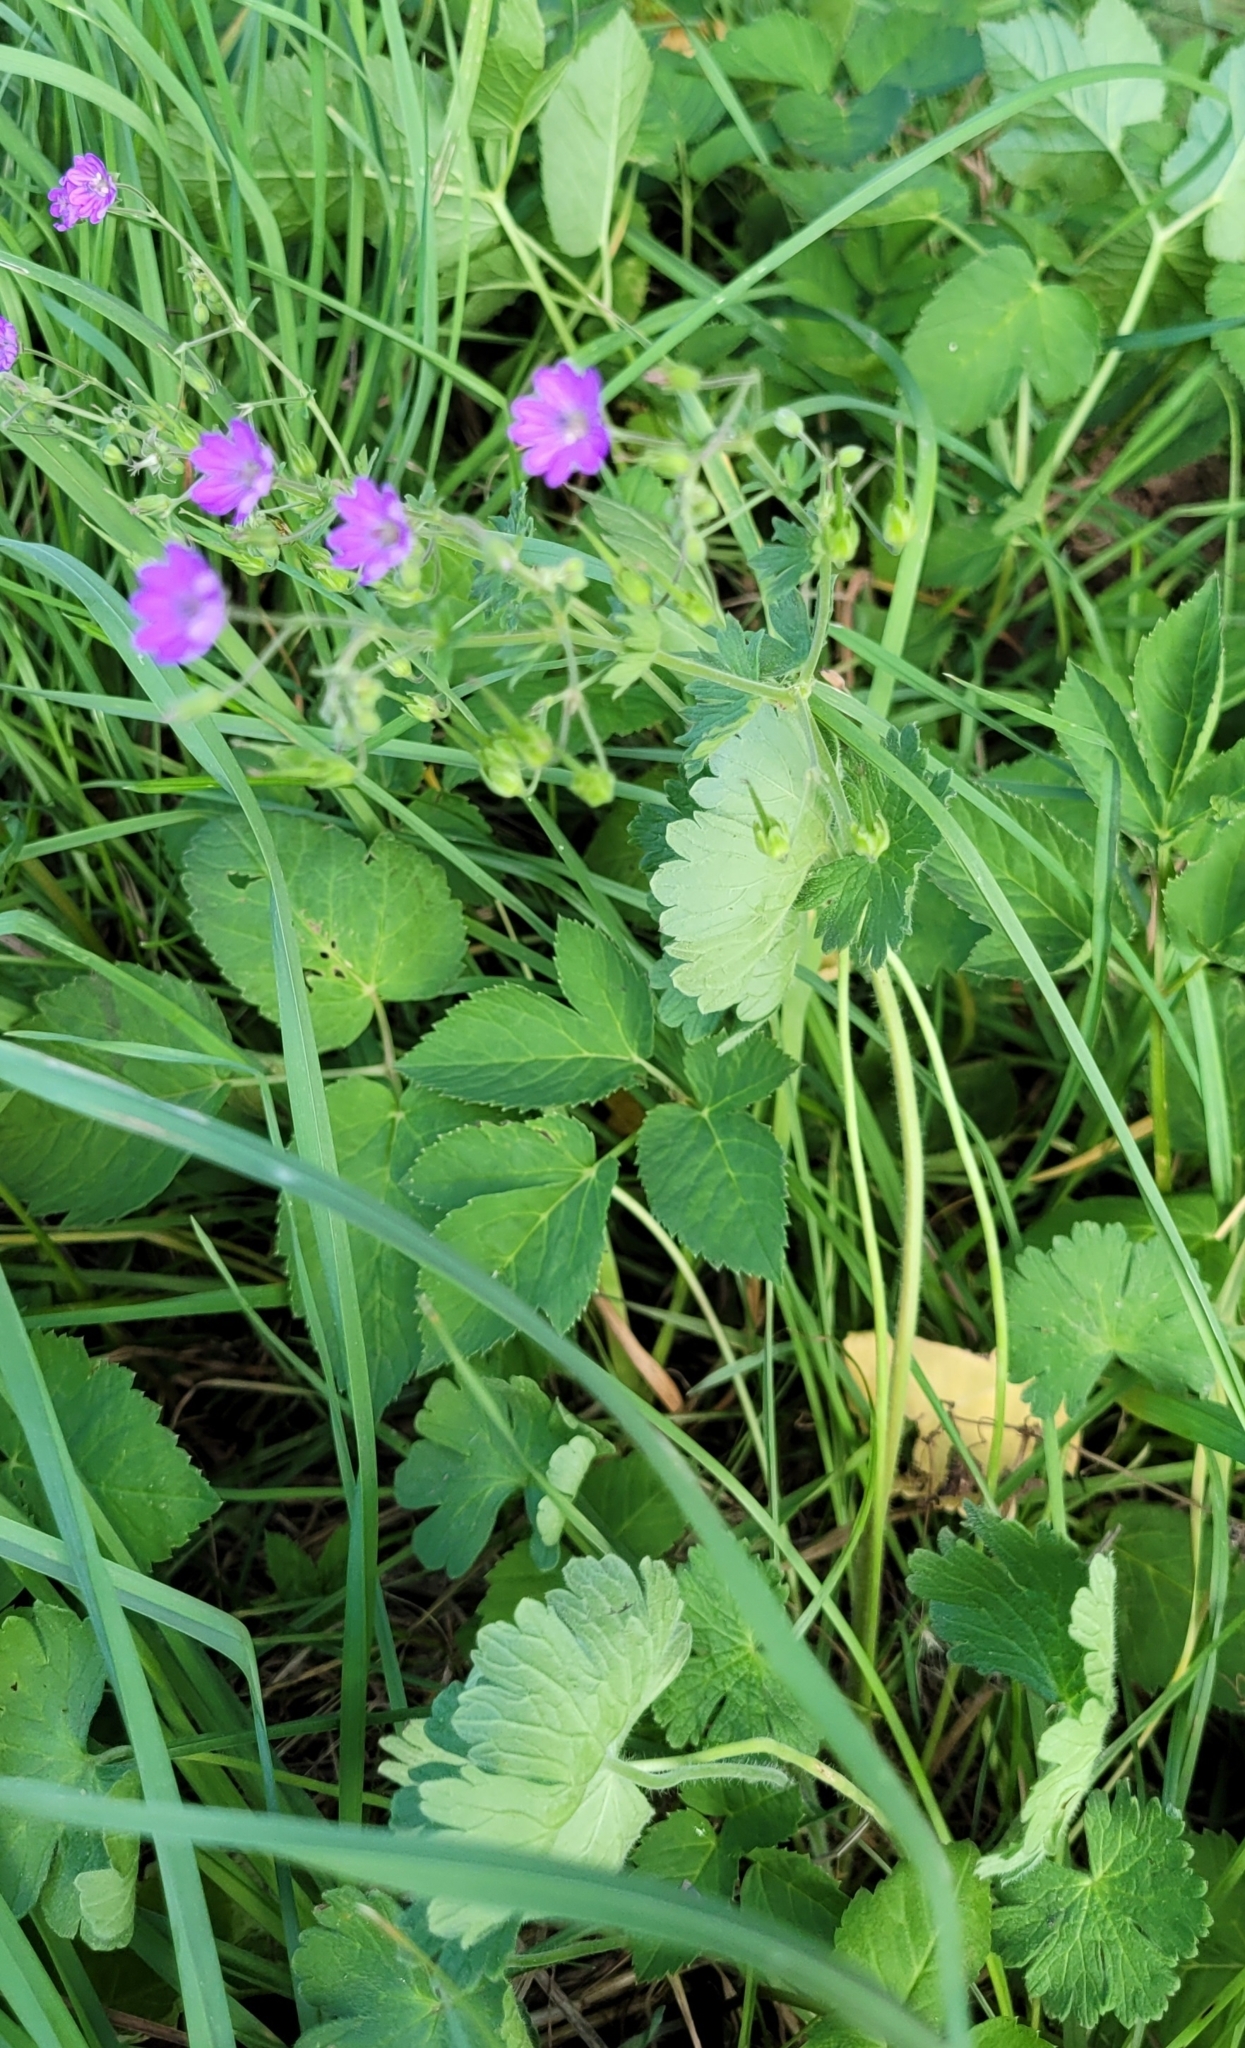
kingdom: Plantae
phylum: Tracheophyta
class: Magnoliopsida
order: Geraniales
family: Geraniaceae
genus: Geranium
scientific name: Geranium pyrenaicum
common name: Hedgerow crane's-bill
